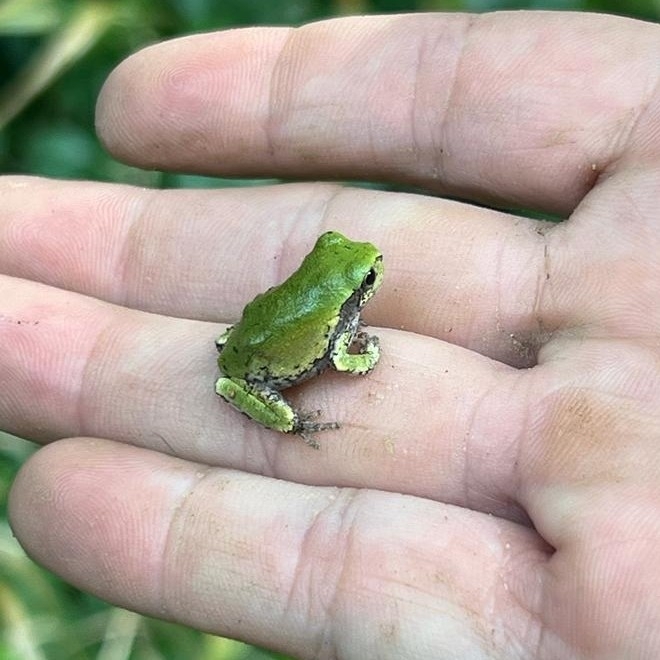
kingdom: Animalia
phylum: Chordata
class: Amphibia
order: Anura
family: Hylidae
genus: Dryophytes
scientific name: Dryophytes versicolor
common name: Gray treefrog
